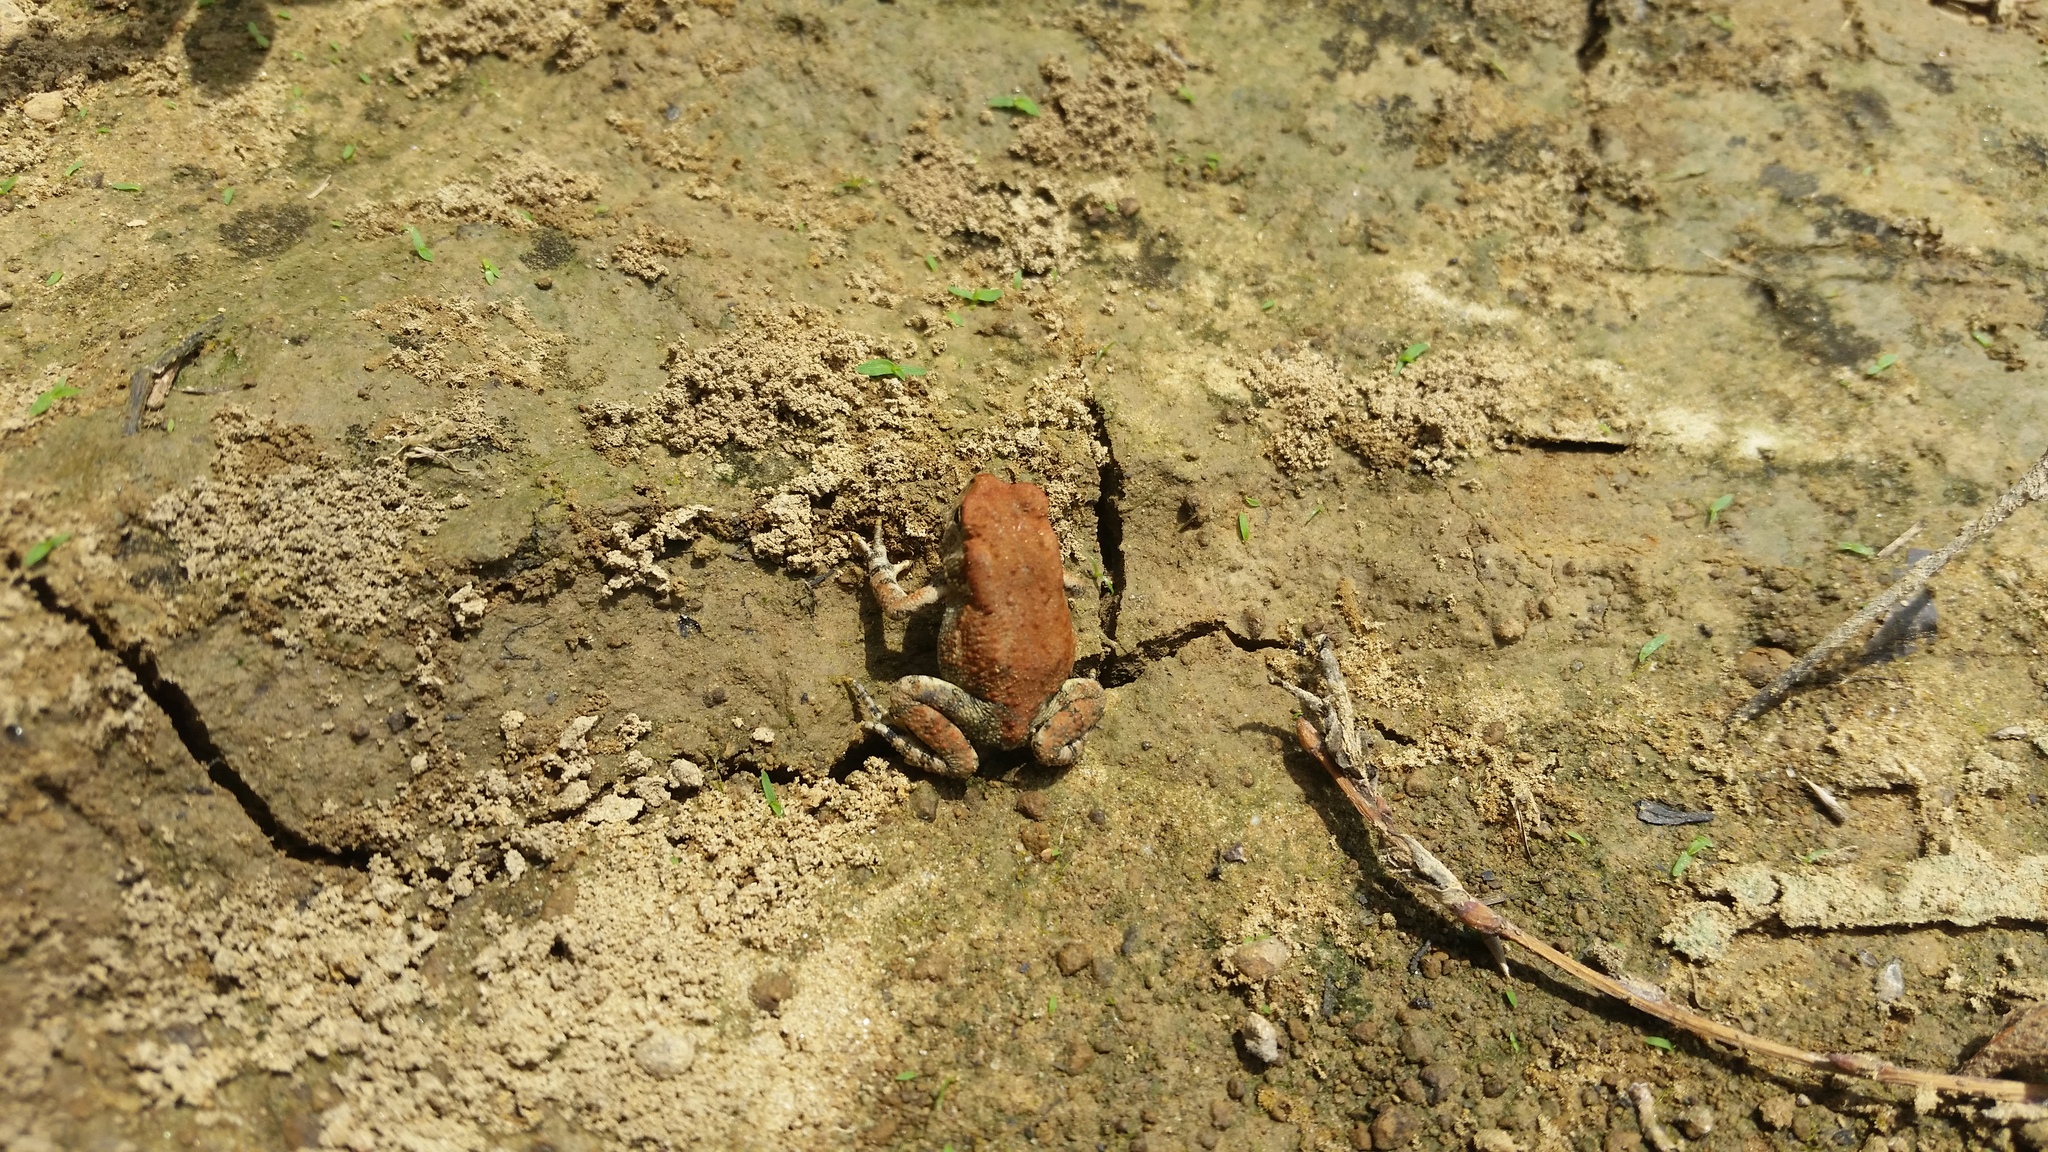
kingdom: Animalia
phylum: Chordata
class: Amphibia
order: Anura
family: Bufonidae
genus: Anaxyrus
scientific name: Anaxyrus americanus
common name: American toad
